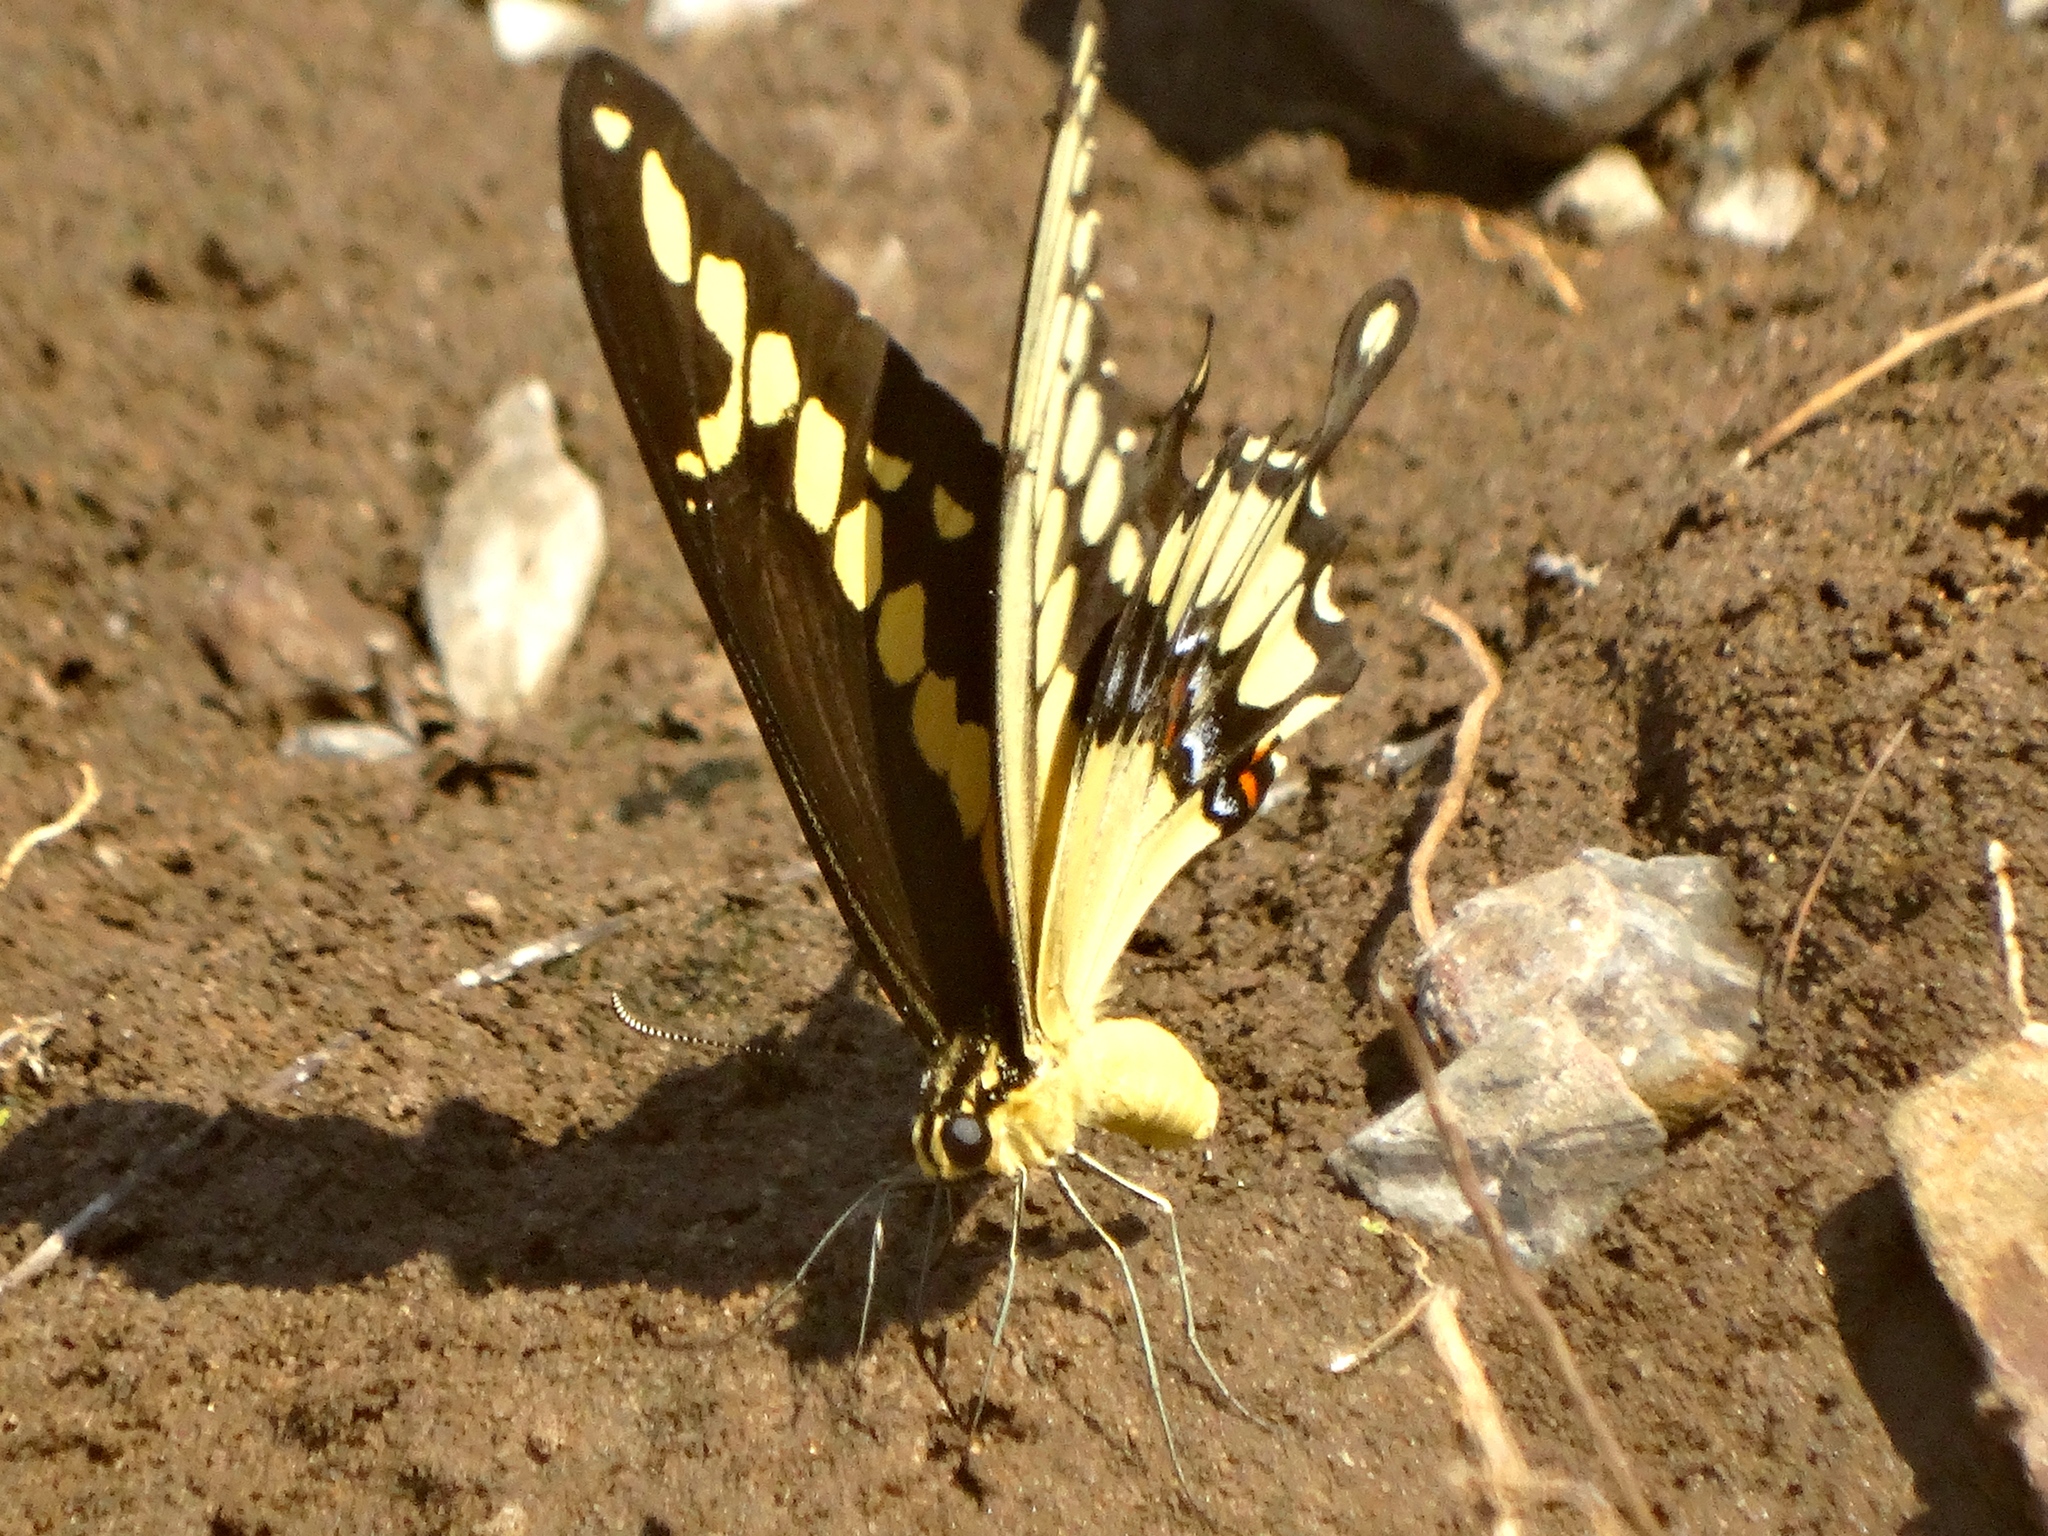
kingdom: Animalia
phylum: Arthropoda
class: Insecta
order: Lepidoptera
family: Papilionidae
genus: Papilio
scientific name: Papilio rumiko
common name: Western giant swallowtail
